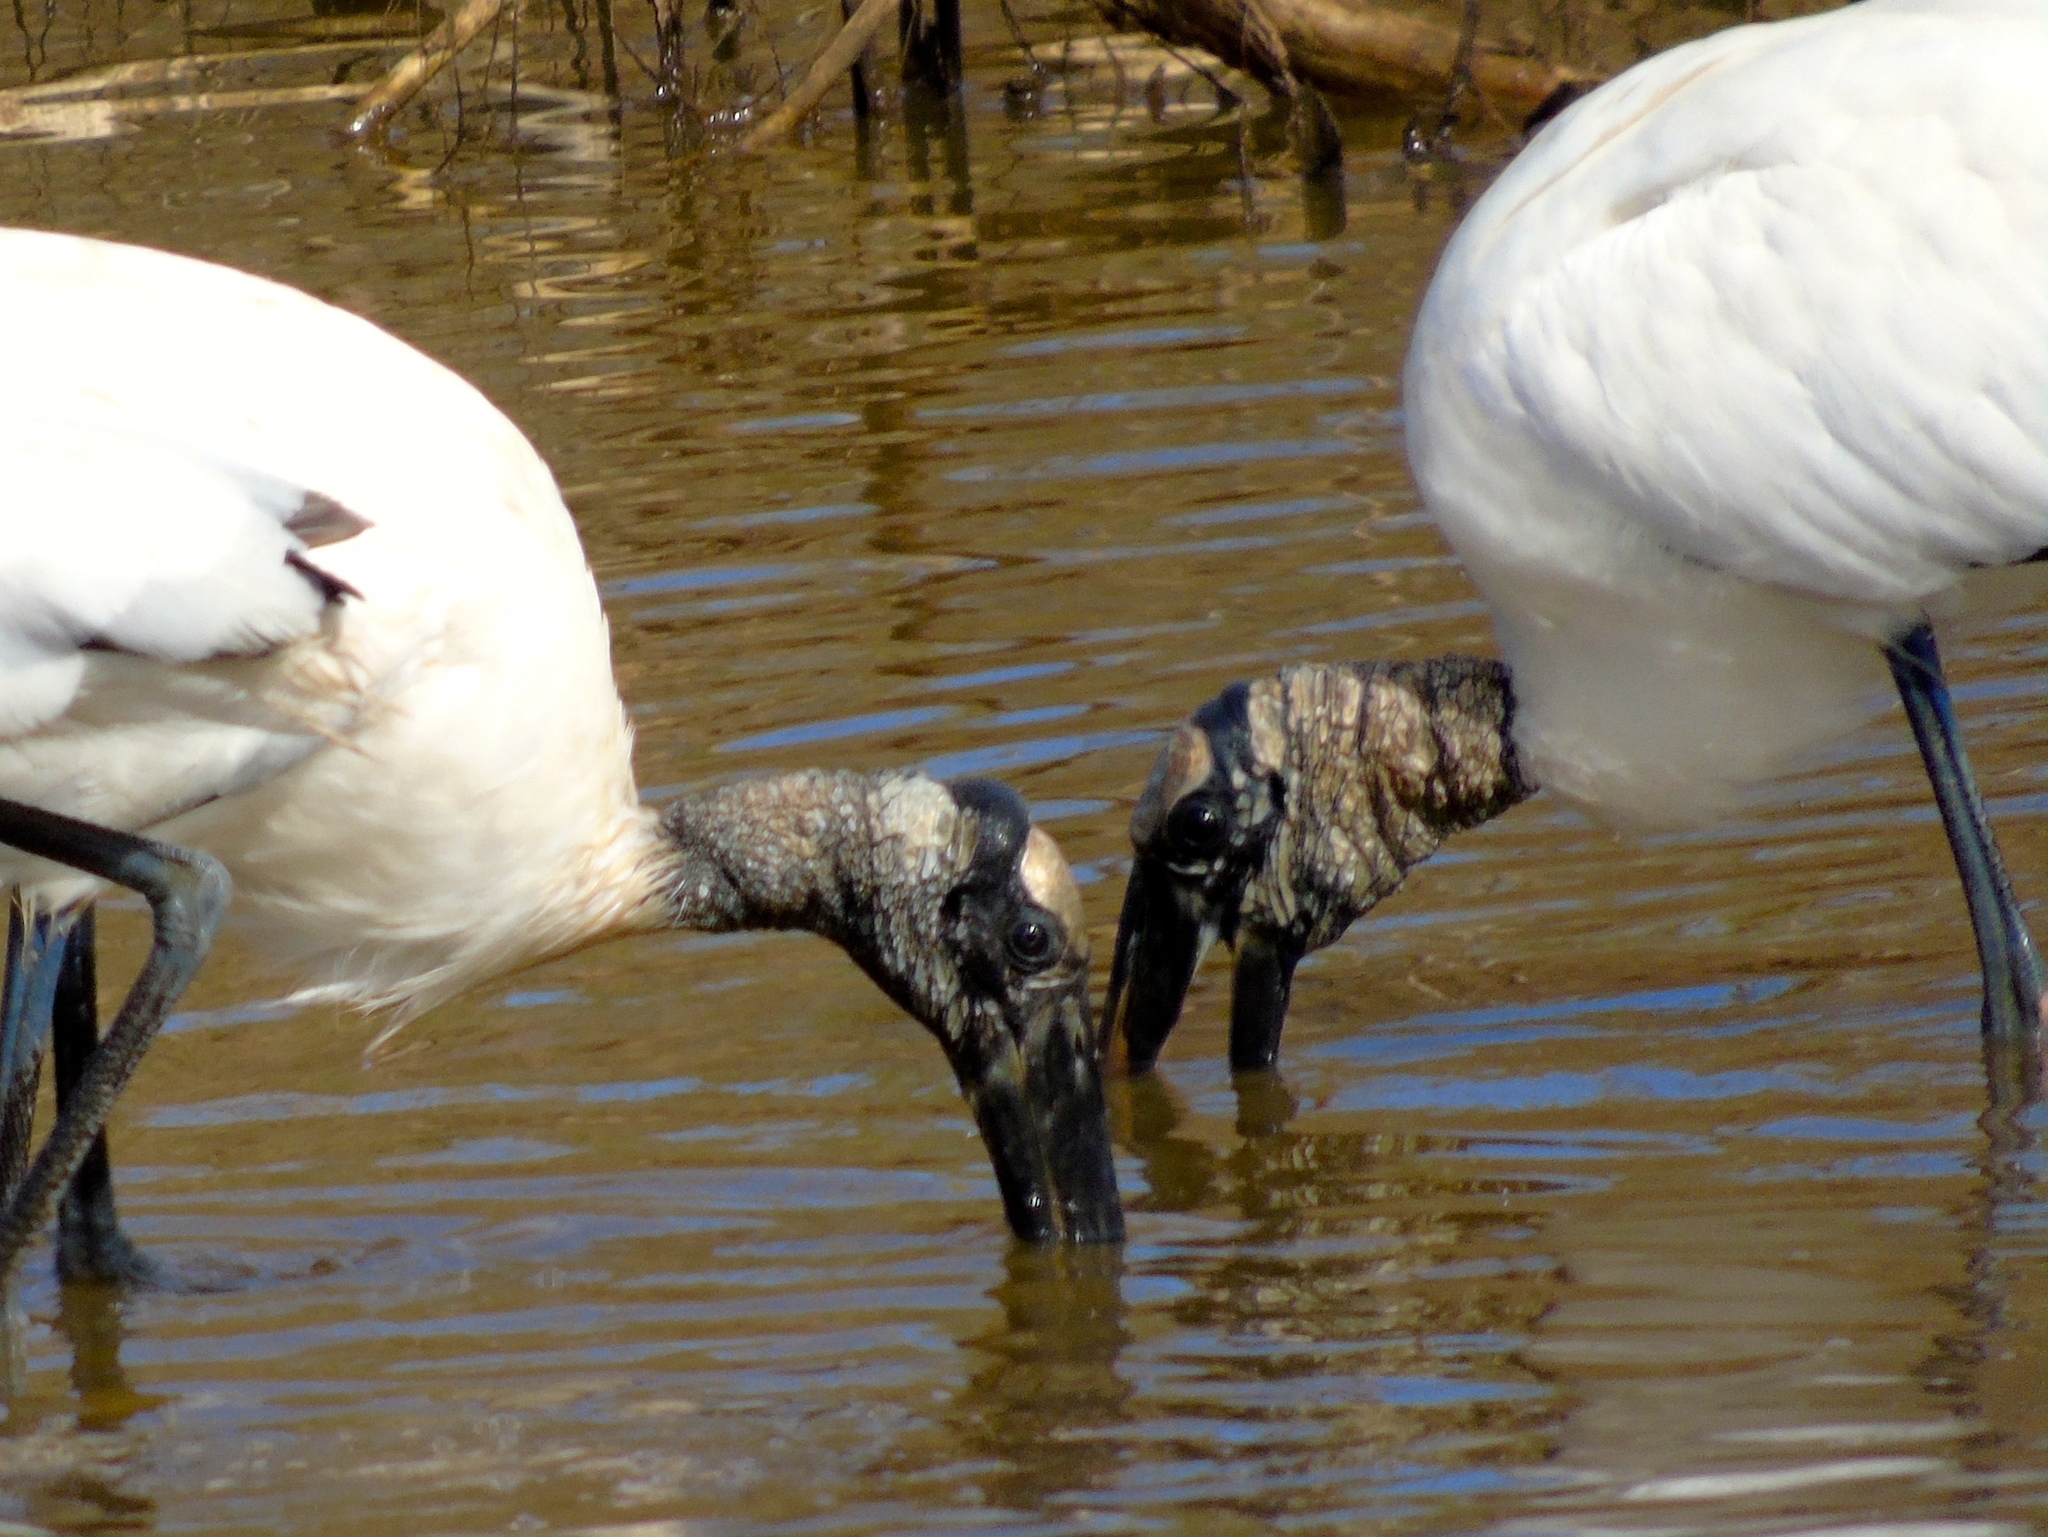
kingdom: Animalia
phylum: Chordata
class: Aves
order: Ciconiiformes
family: Ciconiidae
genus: Mycteria
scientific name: Mycteria americana
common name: Wood stork
